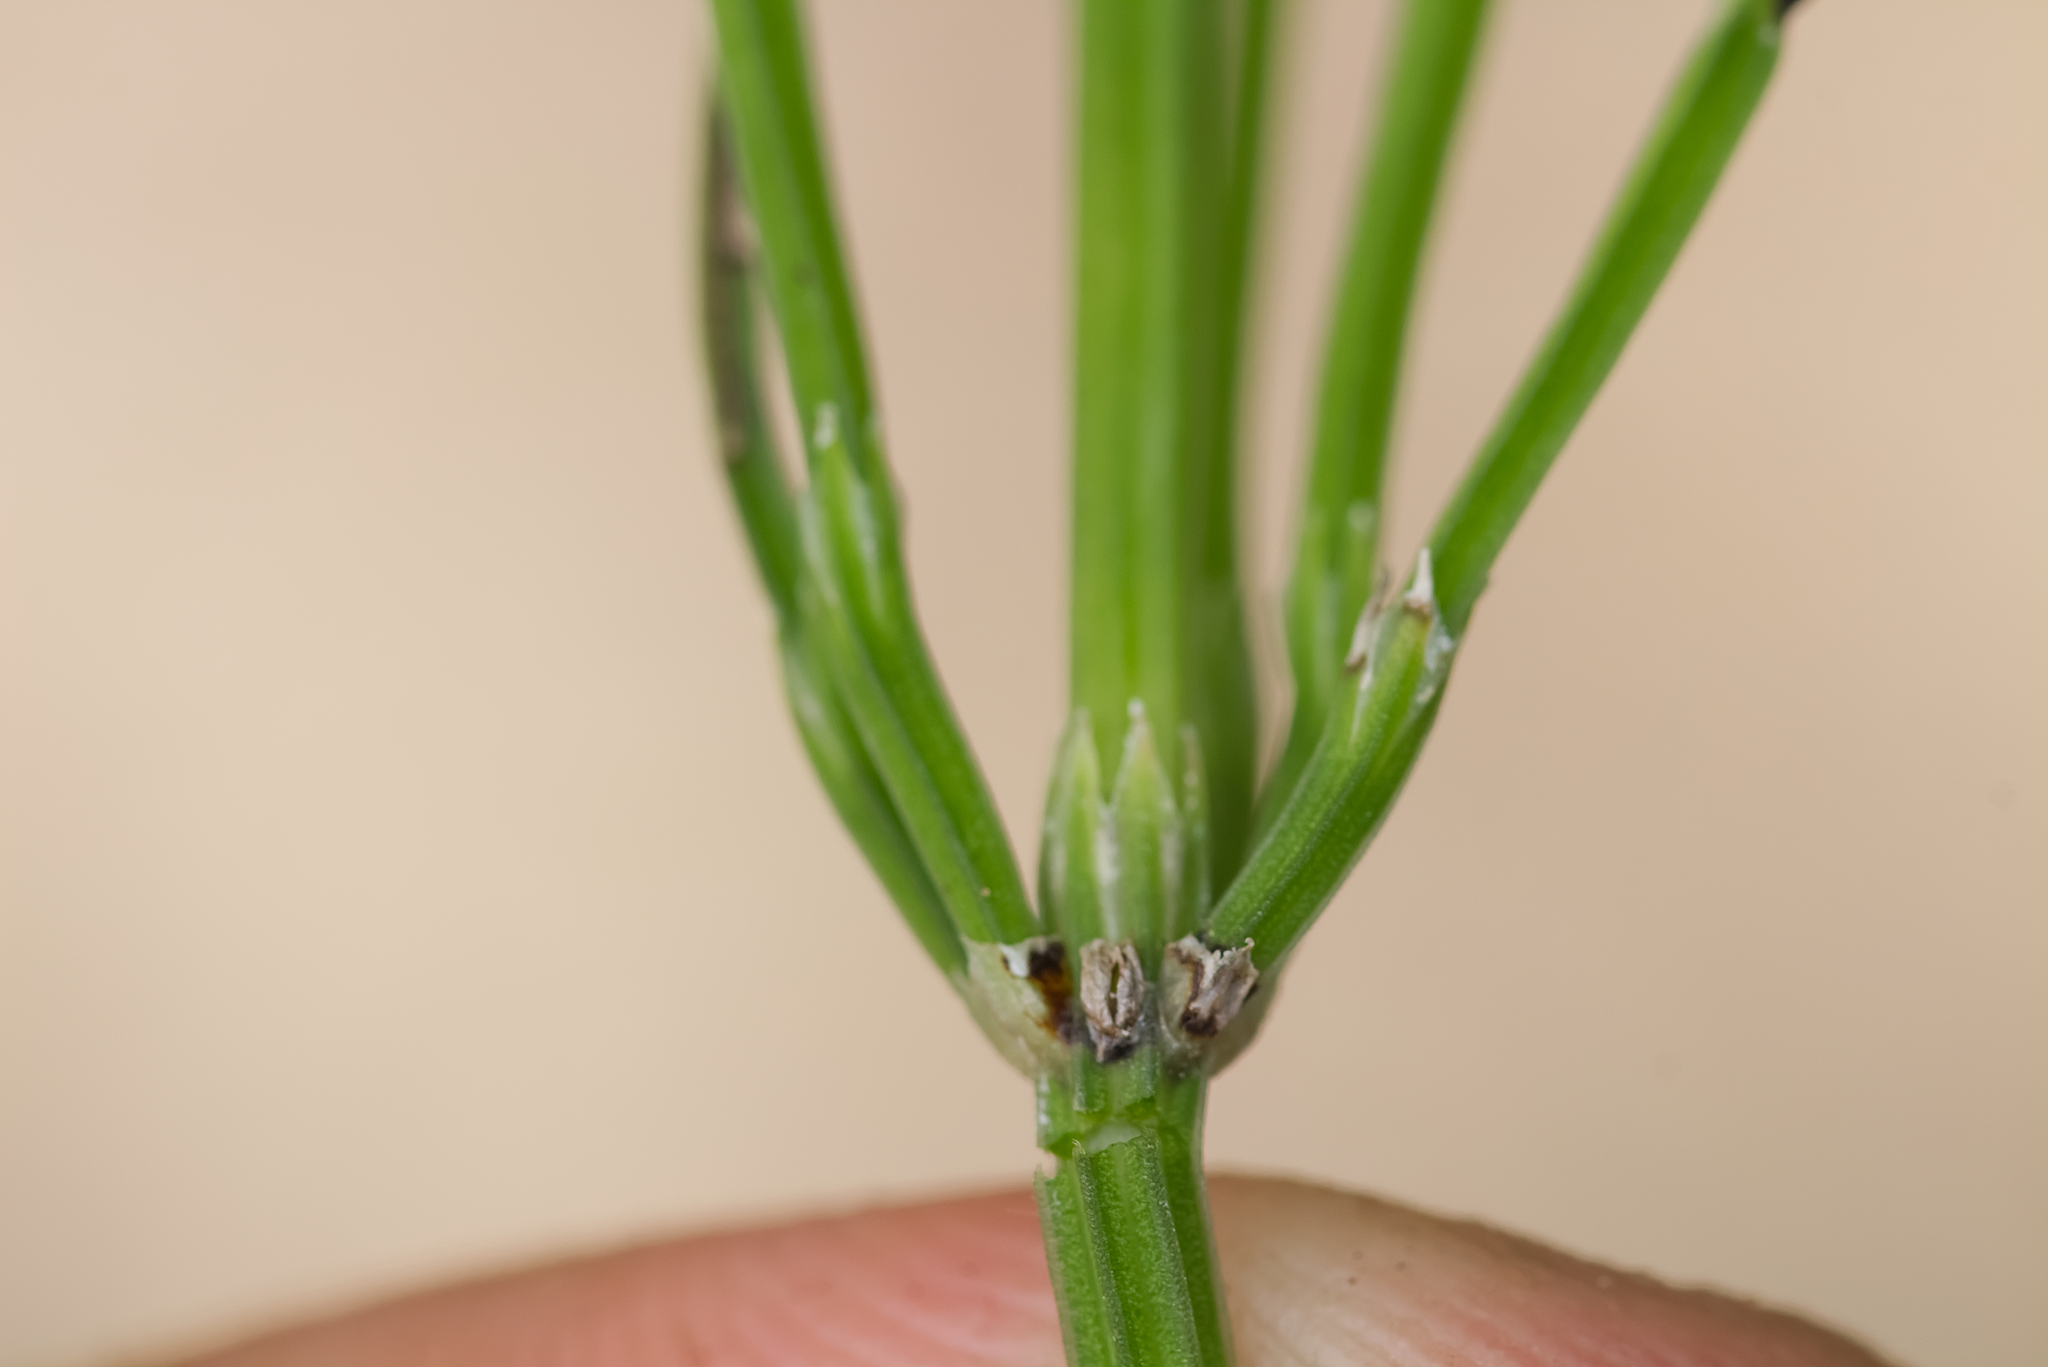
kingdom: Plantae
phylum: Tracheophyta
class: Polypodiopsida
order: Equisetales
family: Equisetaceae
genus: Equisetum
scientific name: Equisetum arvense
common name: Field horsetail
